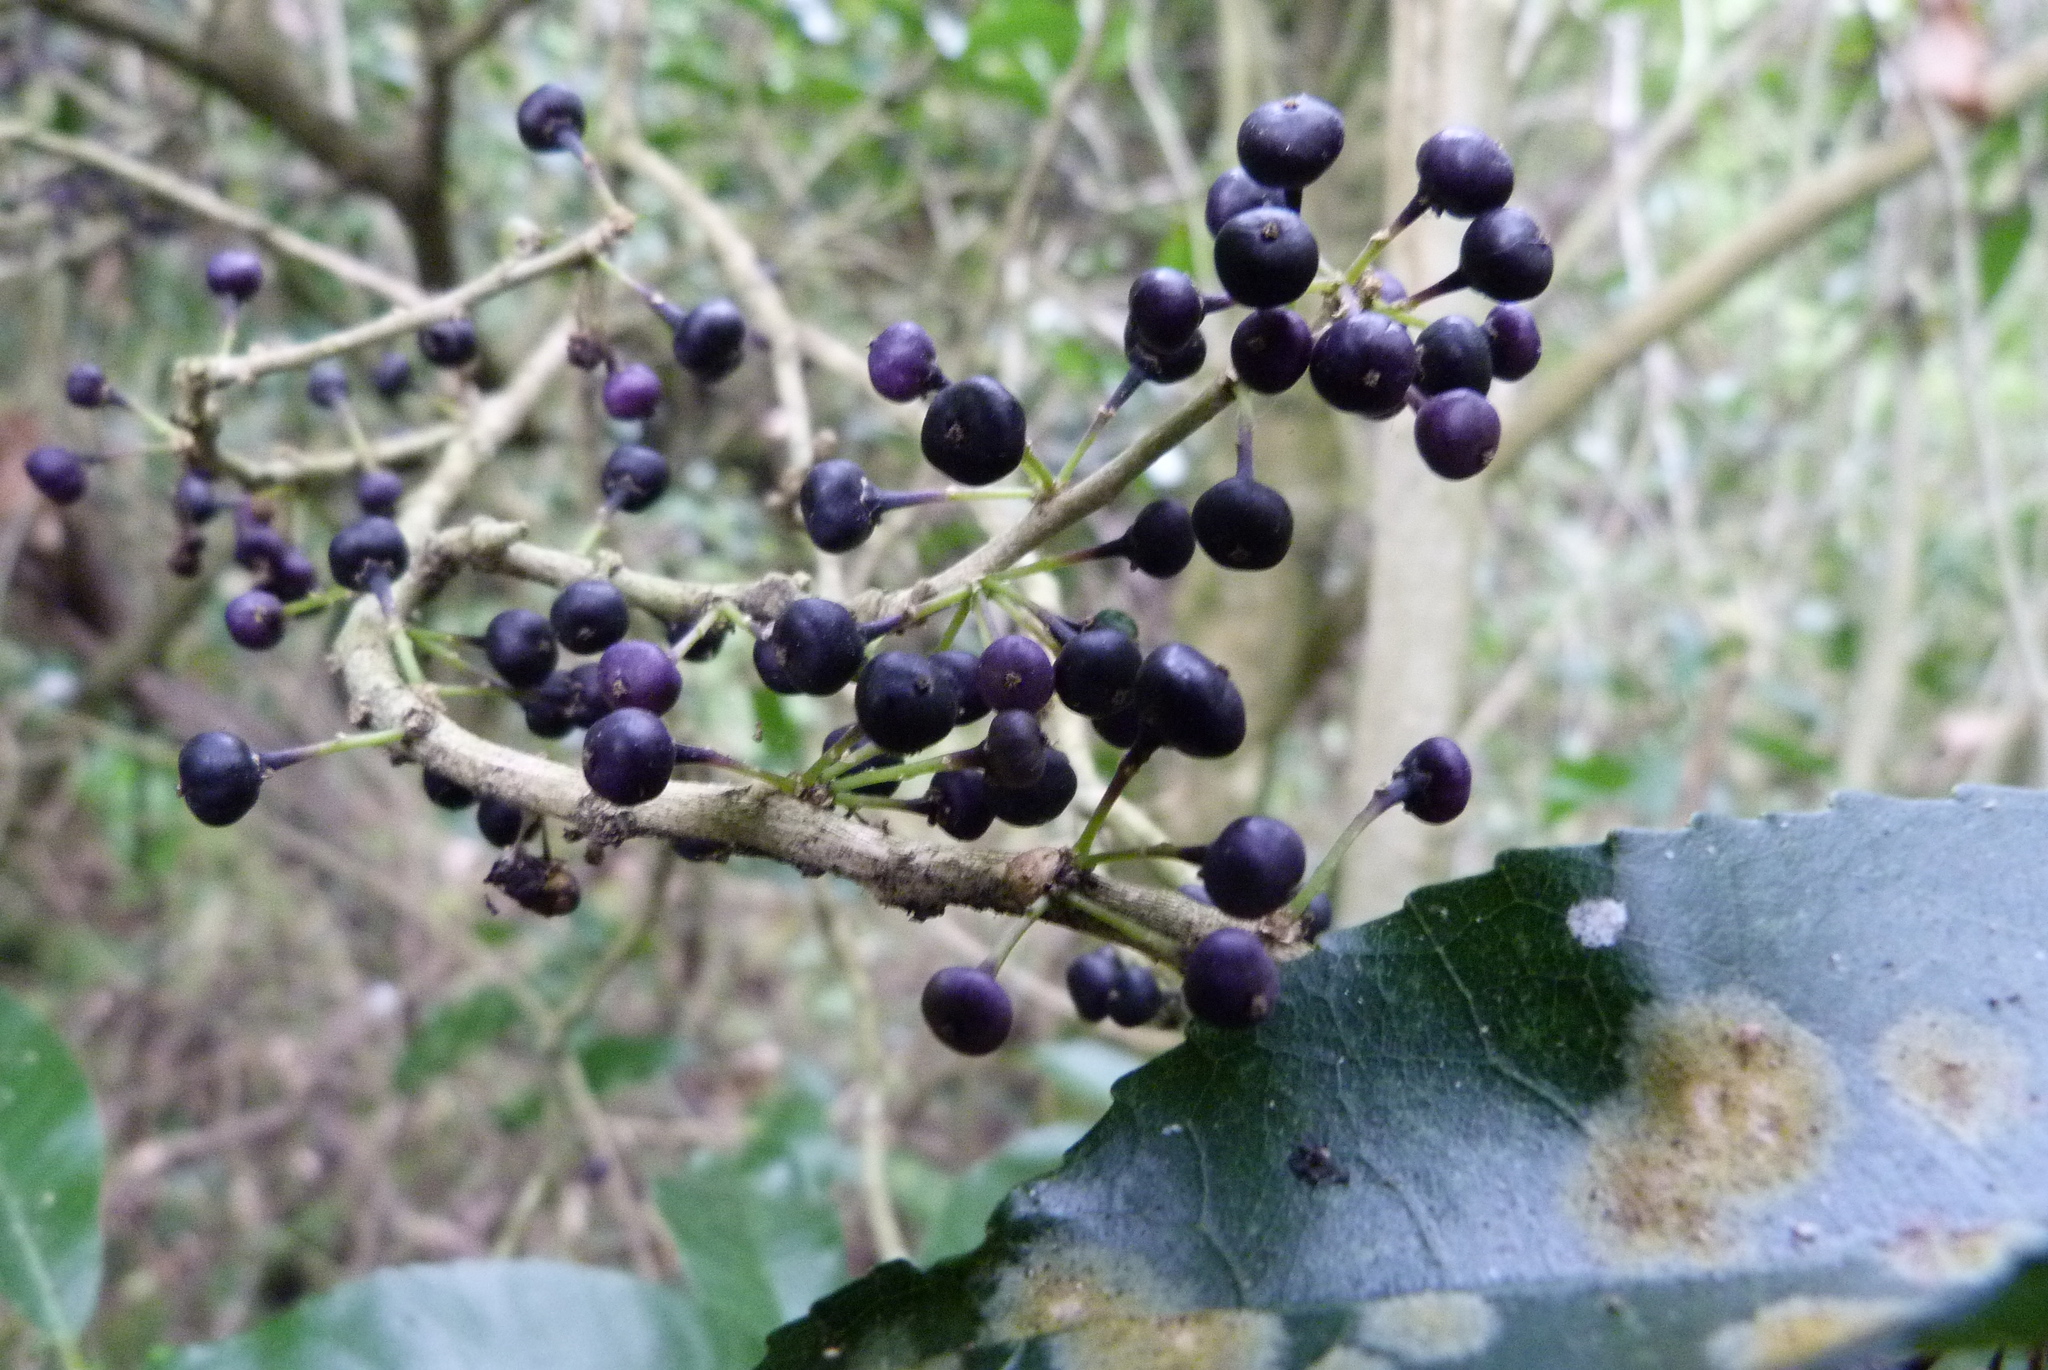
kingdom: Plantae
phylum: Tracheophyta
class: Magnoliopsida
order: Malpighiales
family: Violaceae
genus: Melicytus
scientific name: Melicytus ramiflorus
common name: Mahoe
